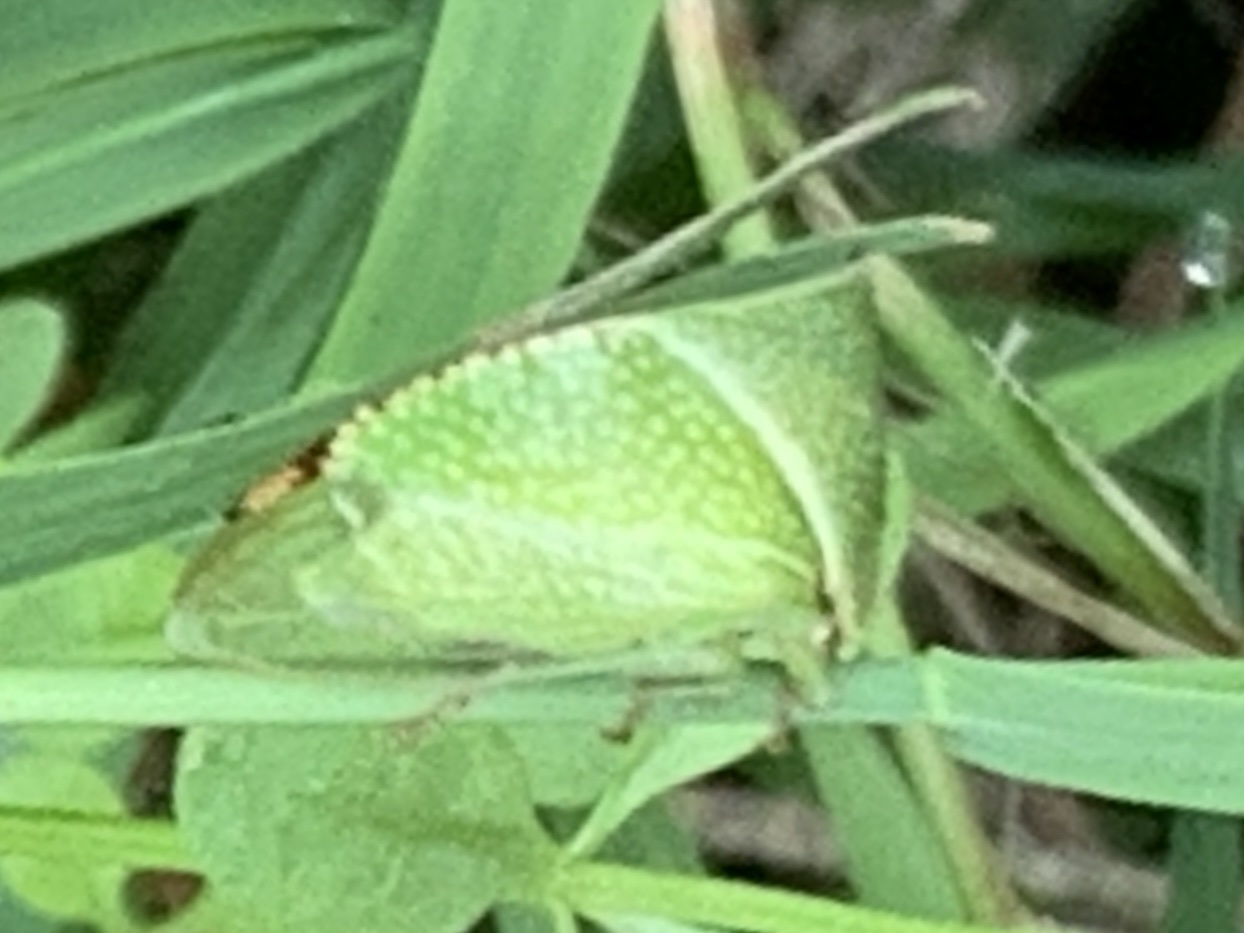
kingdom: Animalia
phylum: Arthropoda
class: Insecta
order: Hemiptera
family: Membracidae
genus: Stictocephala
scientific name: Stictocephala bisonia
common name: American buffalo treehopper
